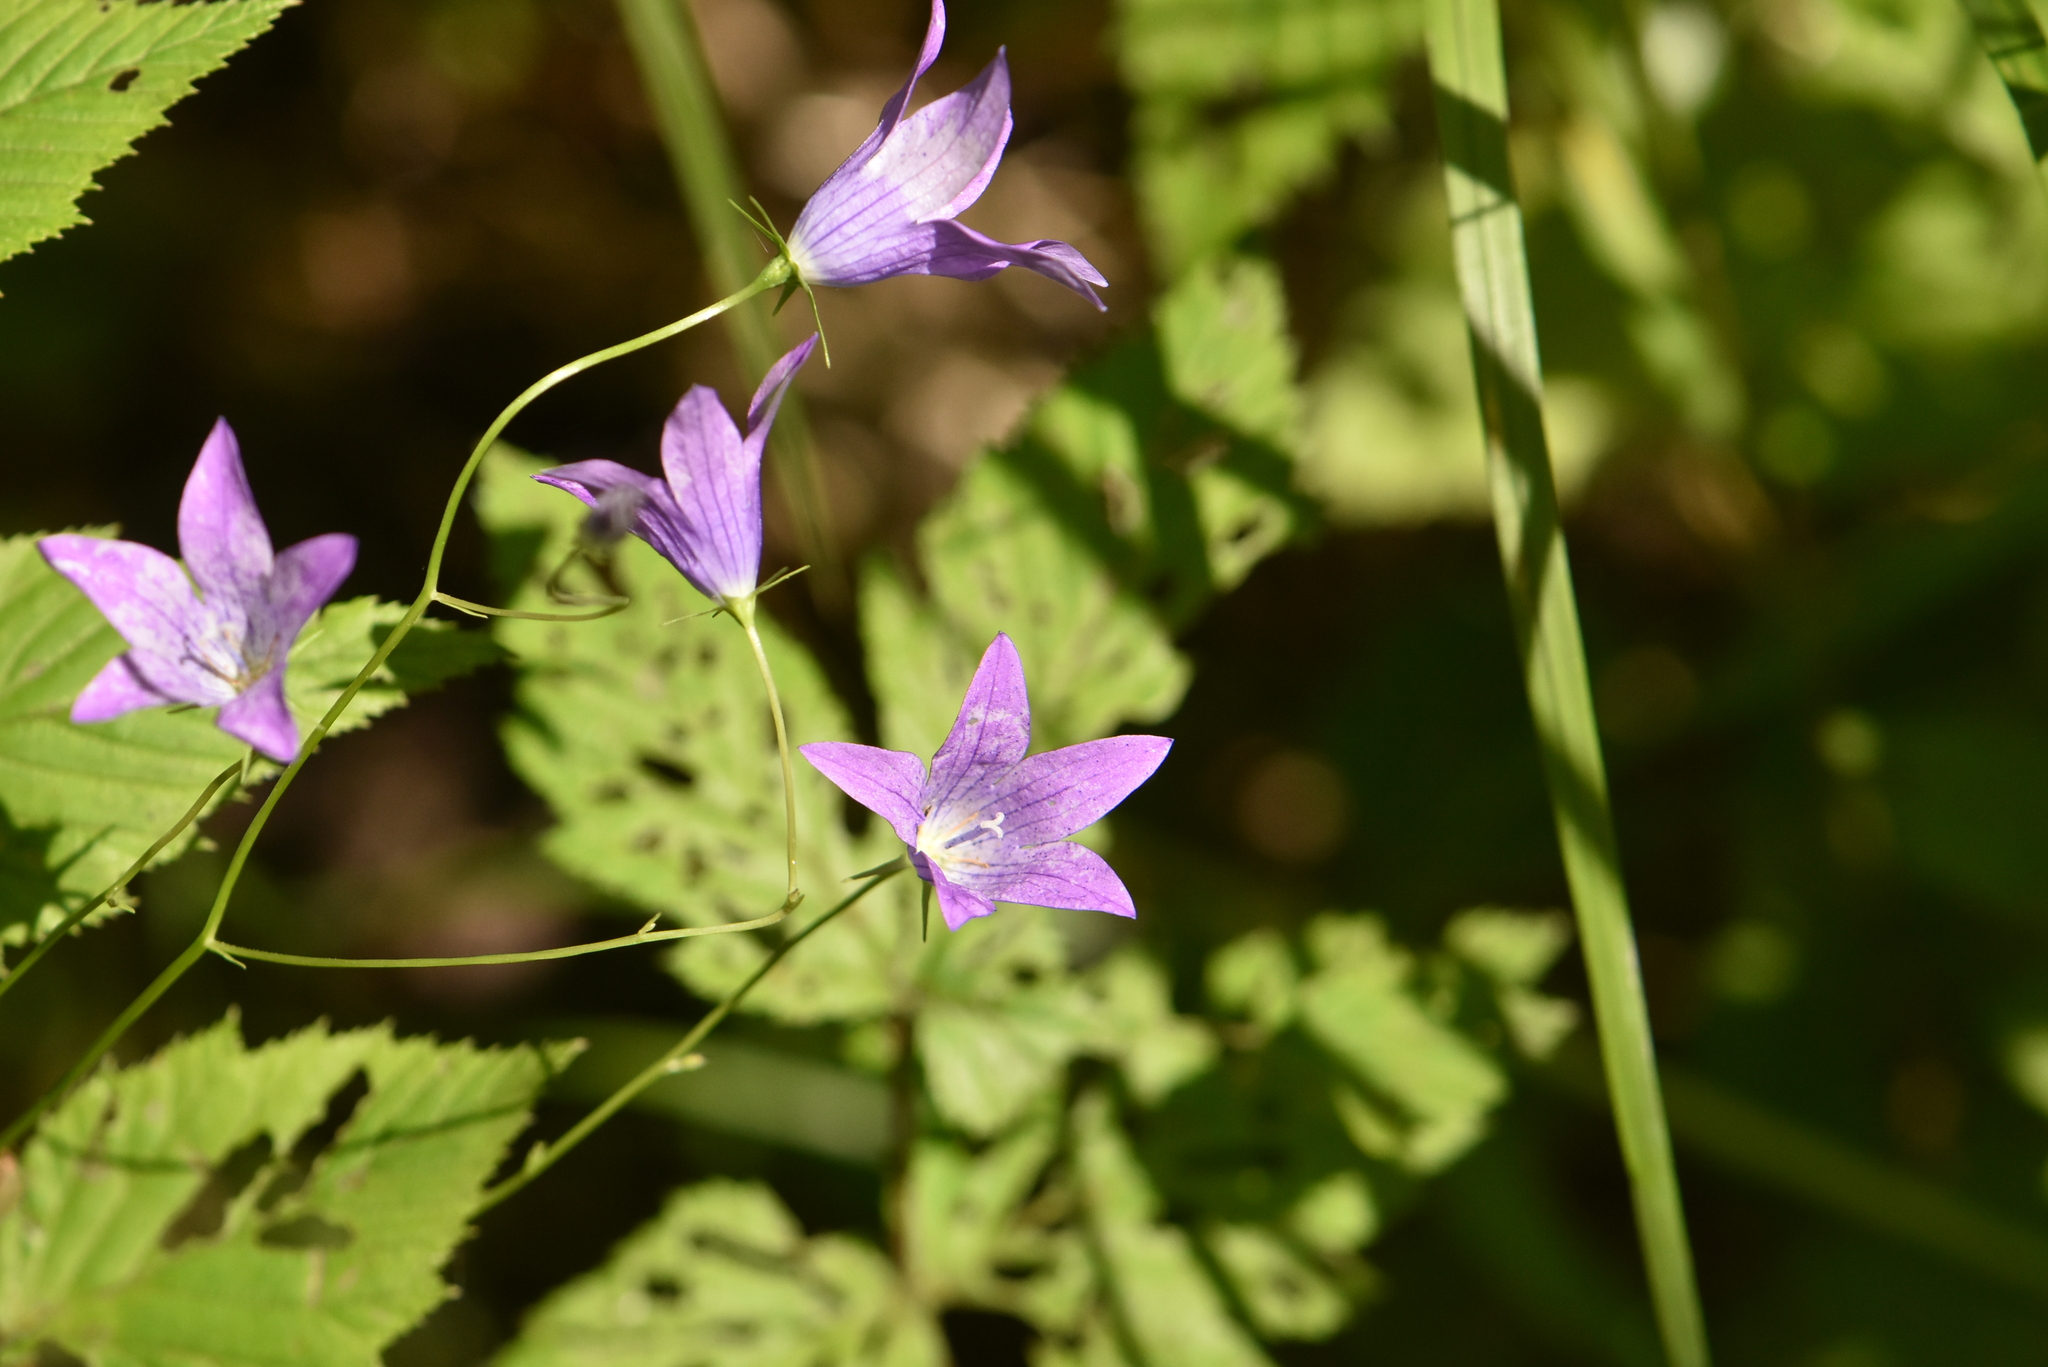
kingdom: Plantae
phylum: Tracheophyta
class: Magnoliopsida
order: Asterales
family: Campanulaceae
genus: Campanula
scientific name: Campanula patula
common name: Spreading bellflower
